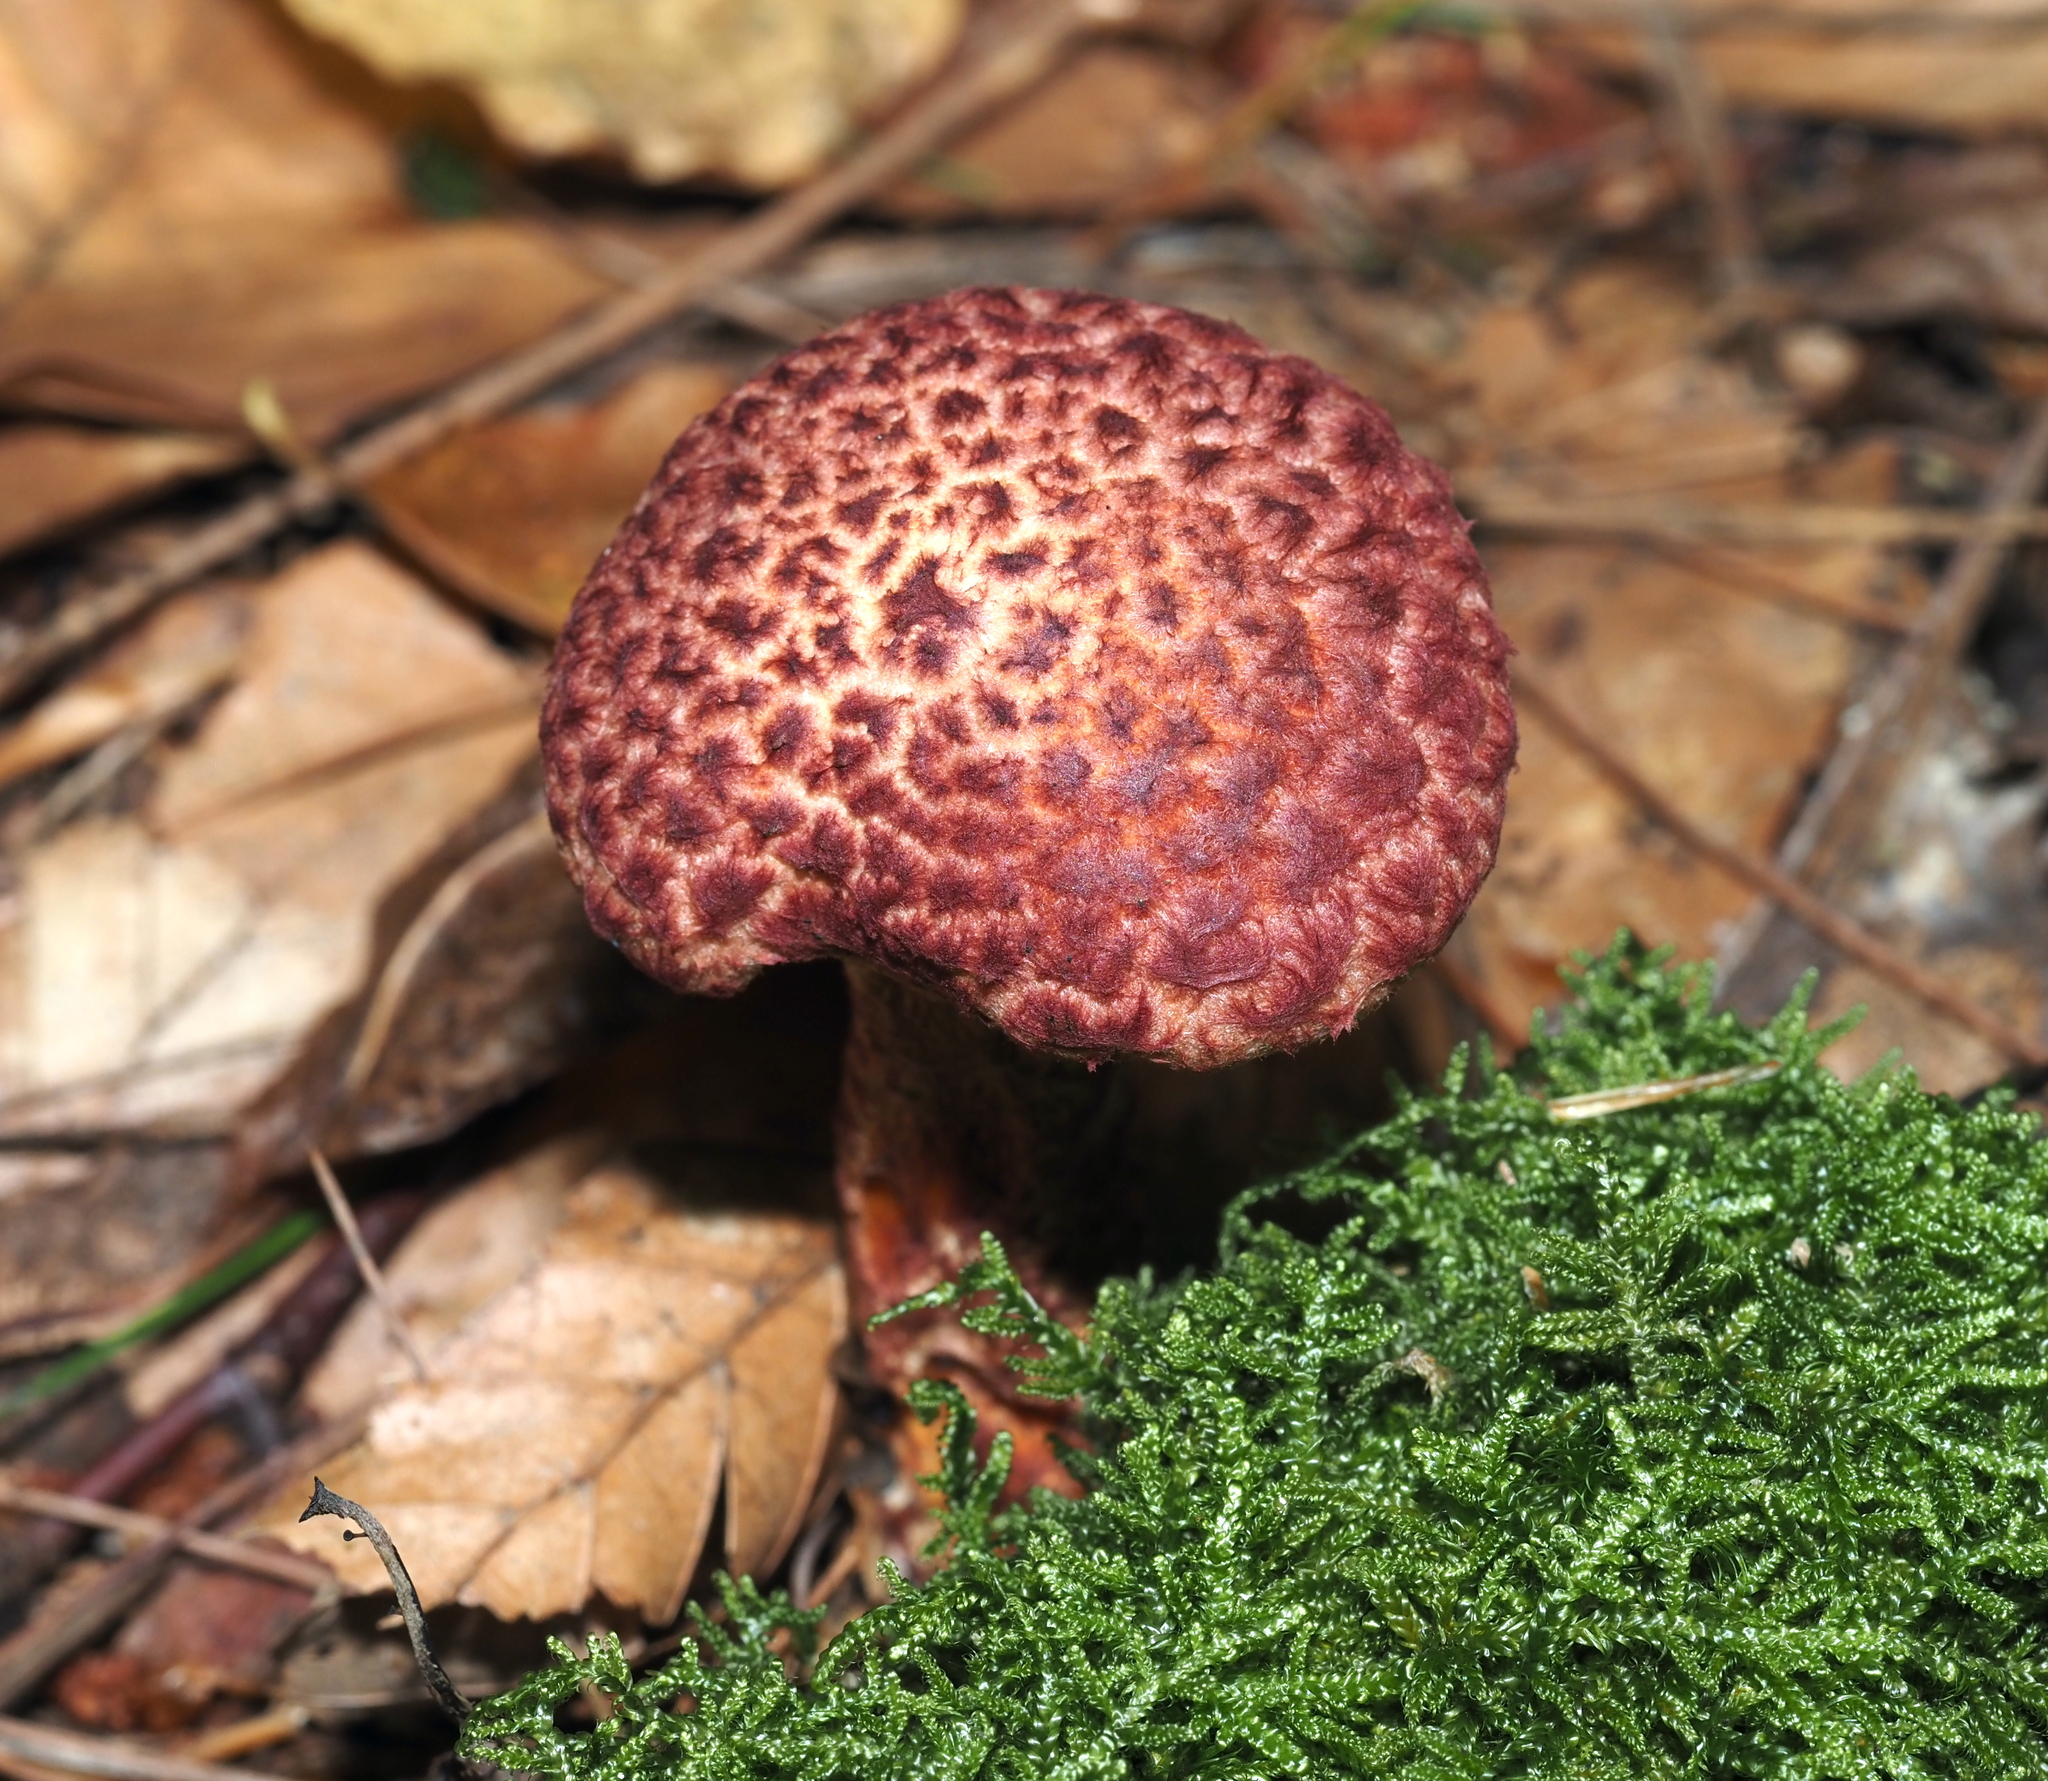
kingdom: Fungi
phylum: Basidiomycota
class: Agaricomycetes
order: Boletales
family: Suillaceae
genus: Suillus
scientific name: Suillus spraguei
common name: Painted suillus
